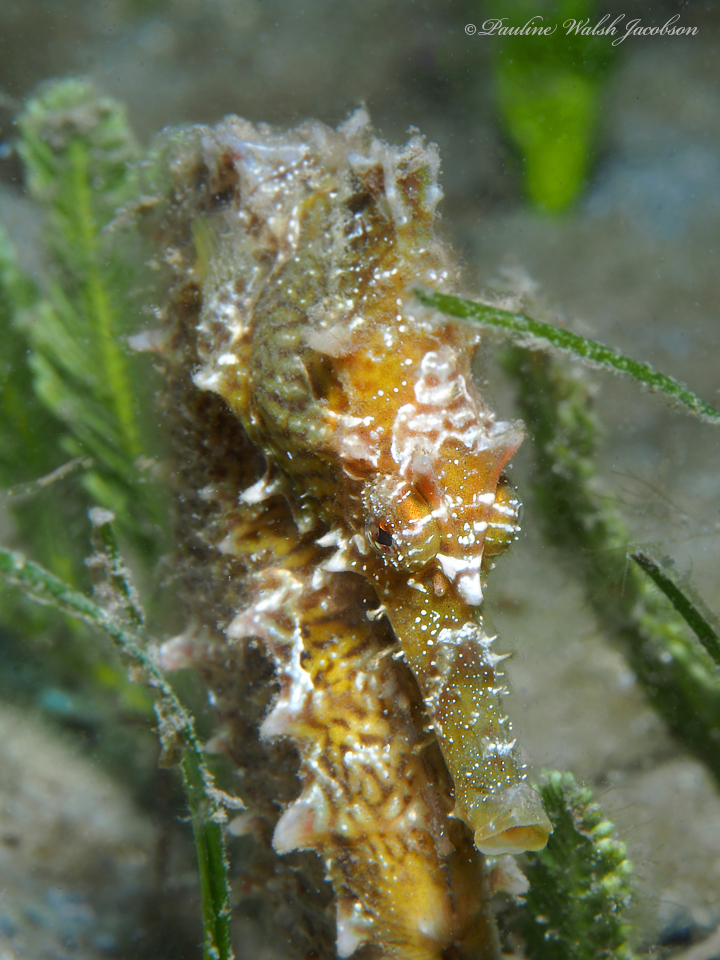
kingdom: Animalia
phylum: Chordata
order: Syngnathiformes
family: Syngnathidae
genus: Hippocampus
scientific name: Hippocampus erectus
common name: Lined seahorse
